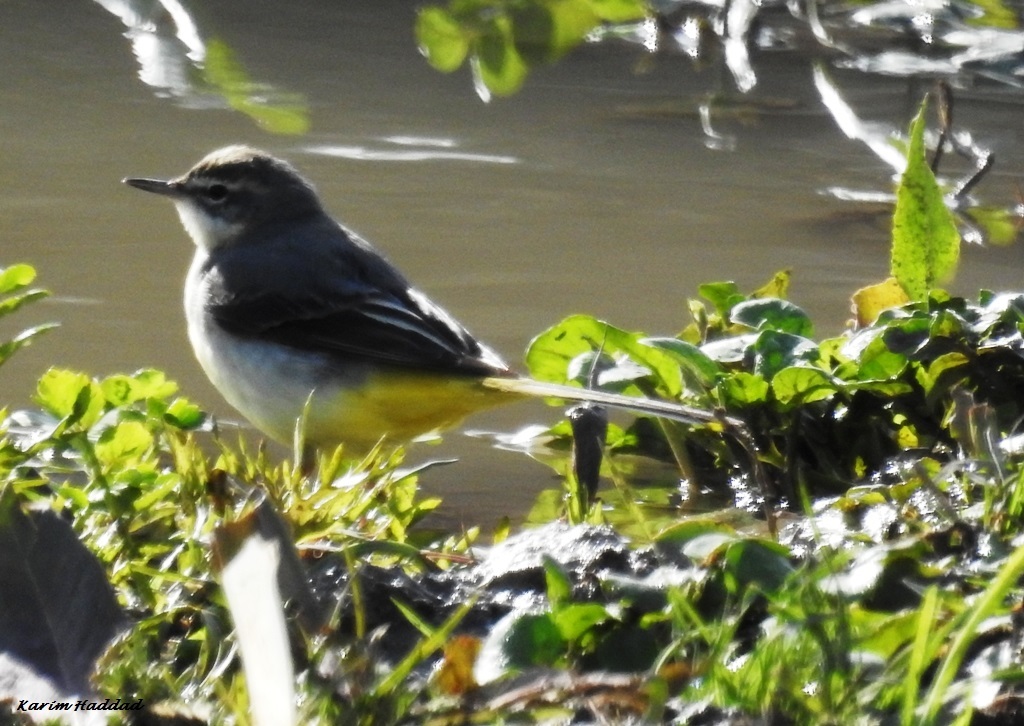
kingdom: Animalia
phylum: Chordata
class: Aves
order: Passeriformes
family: Motacillidae
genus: Motacilla
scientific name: Motacilla cinerea
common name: Grey wagtail
